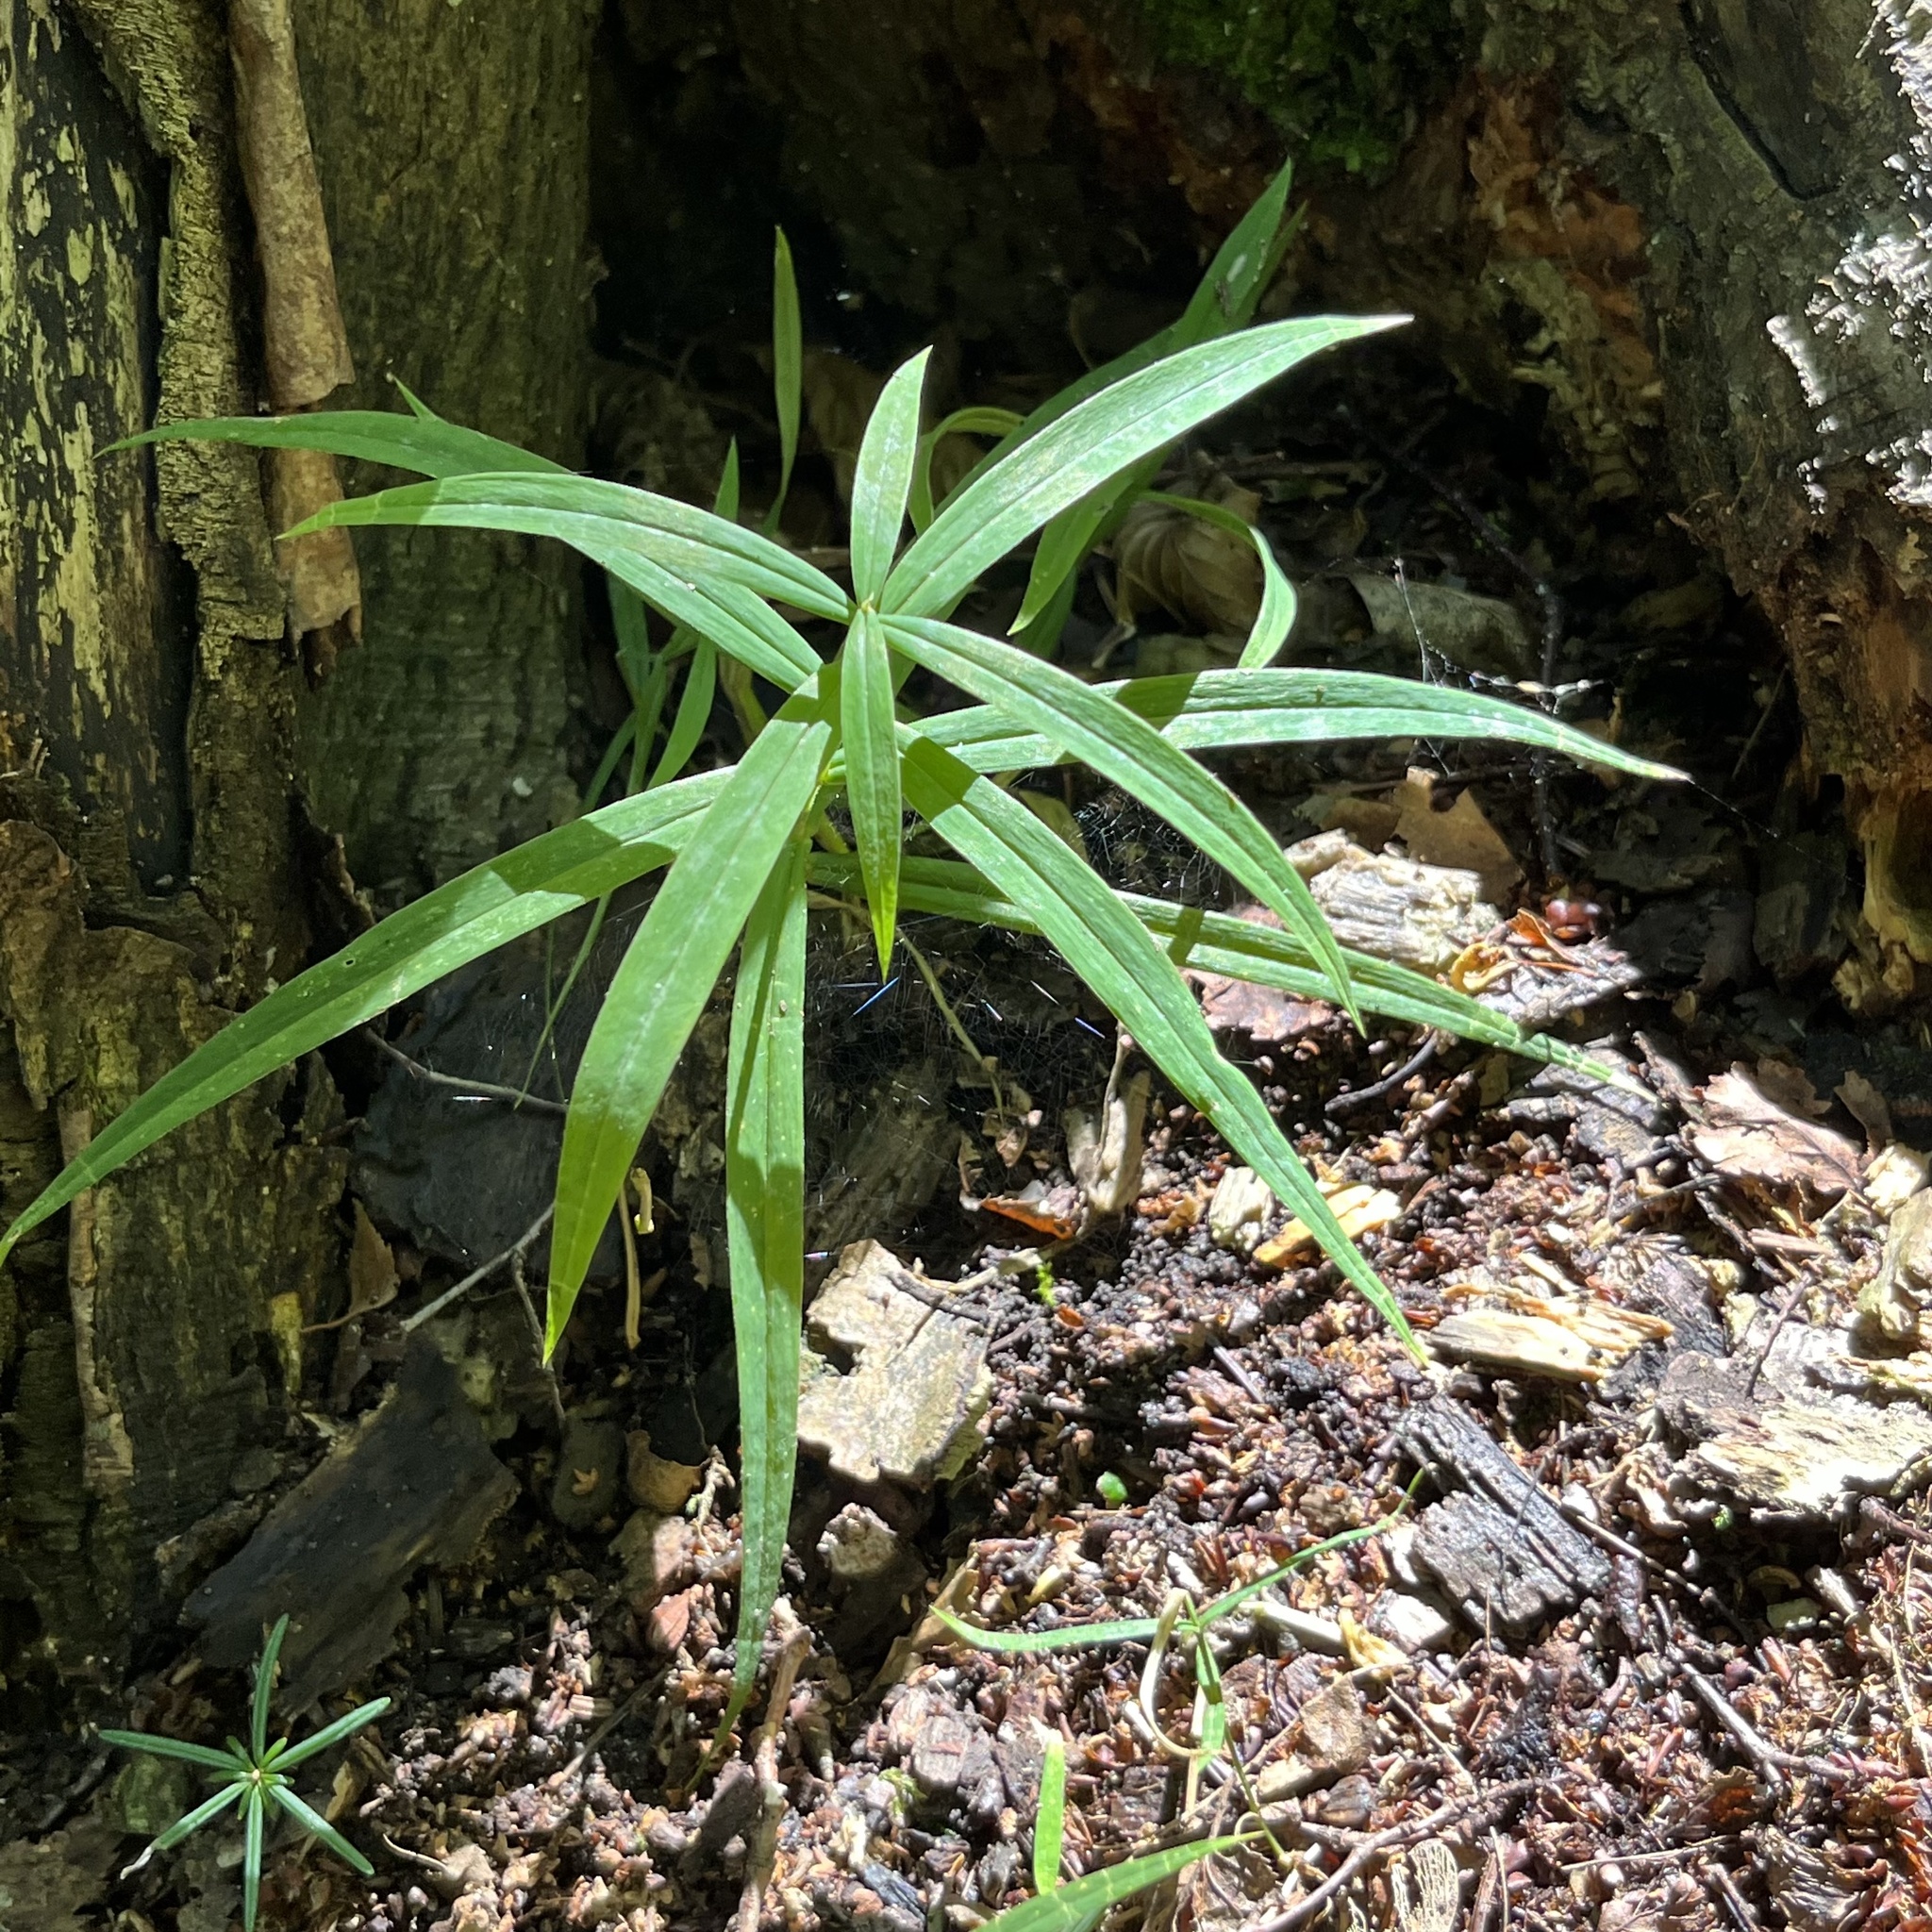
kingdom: Plantae
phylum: Tracheophyta
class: Magnoliopsida
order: Caryophyllales
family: Caryophyllaceae
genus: Rabelera
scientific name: Rabelera holostea
